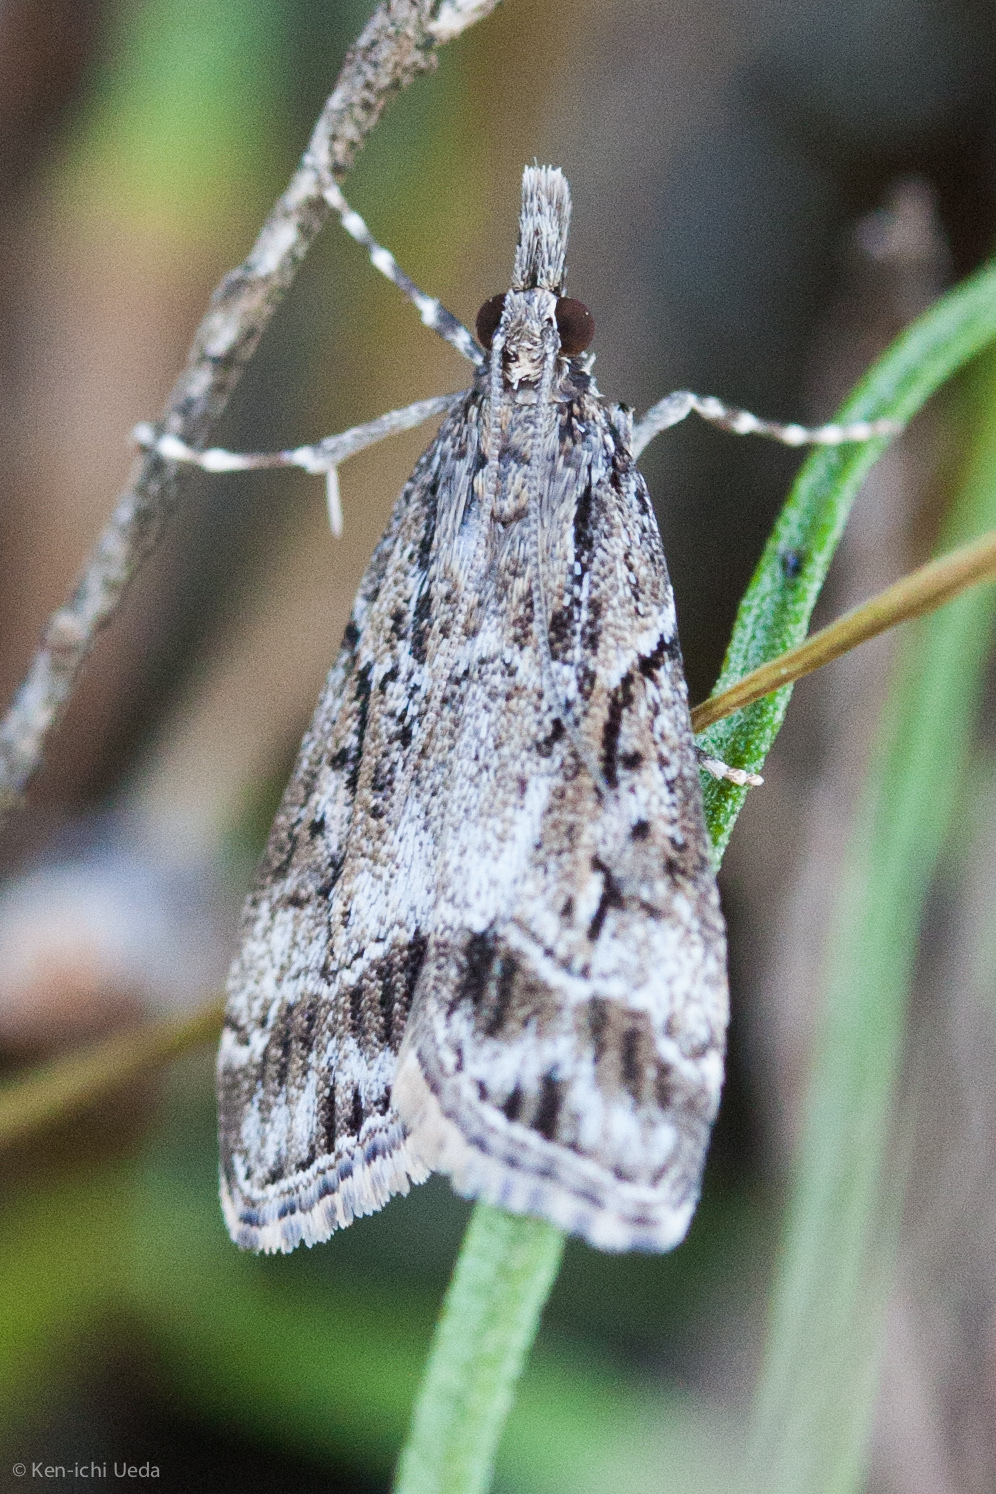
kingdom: Animalia
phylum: Arthropoda
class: Insecta
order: Lepidoptera
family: Crambidae
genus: Eudonia
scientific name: Eudonia rectilinea
